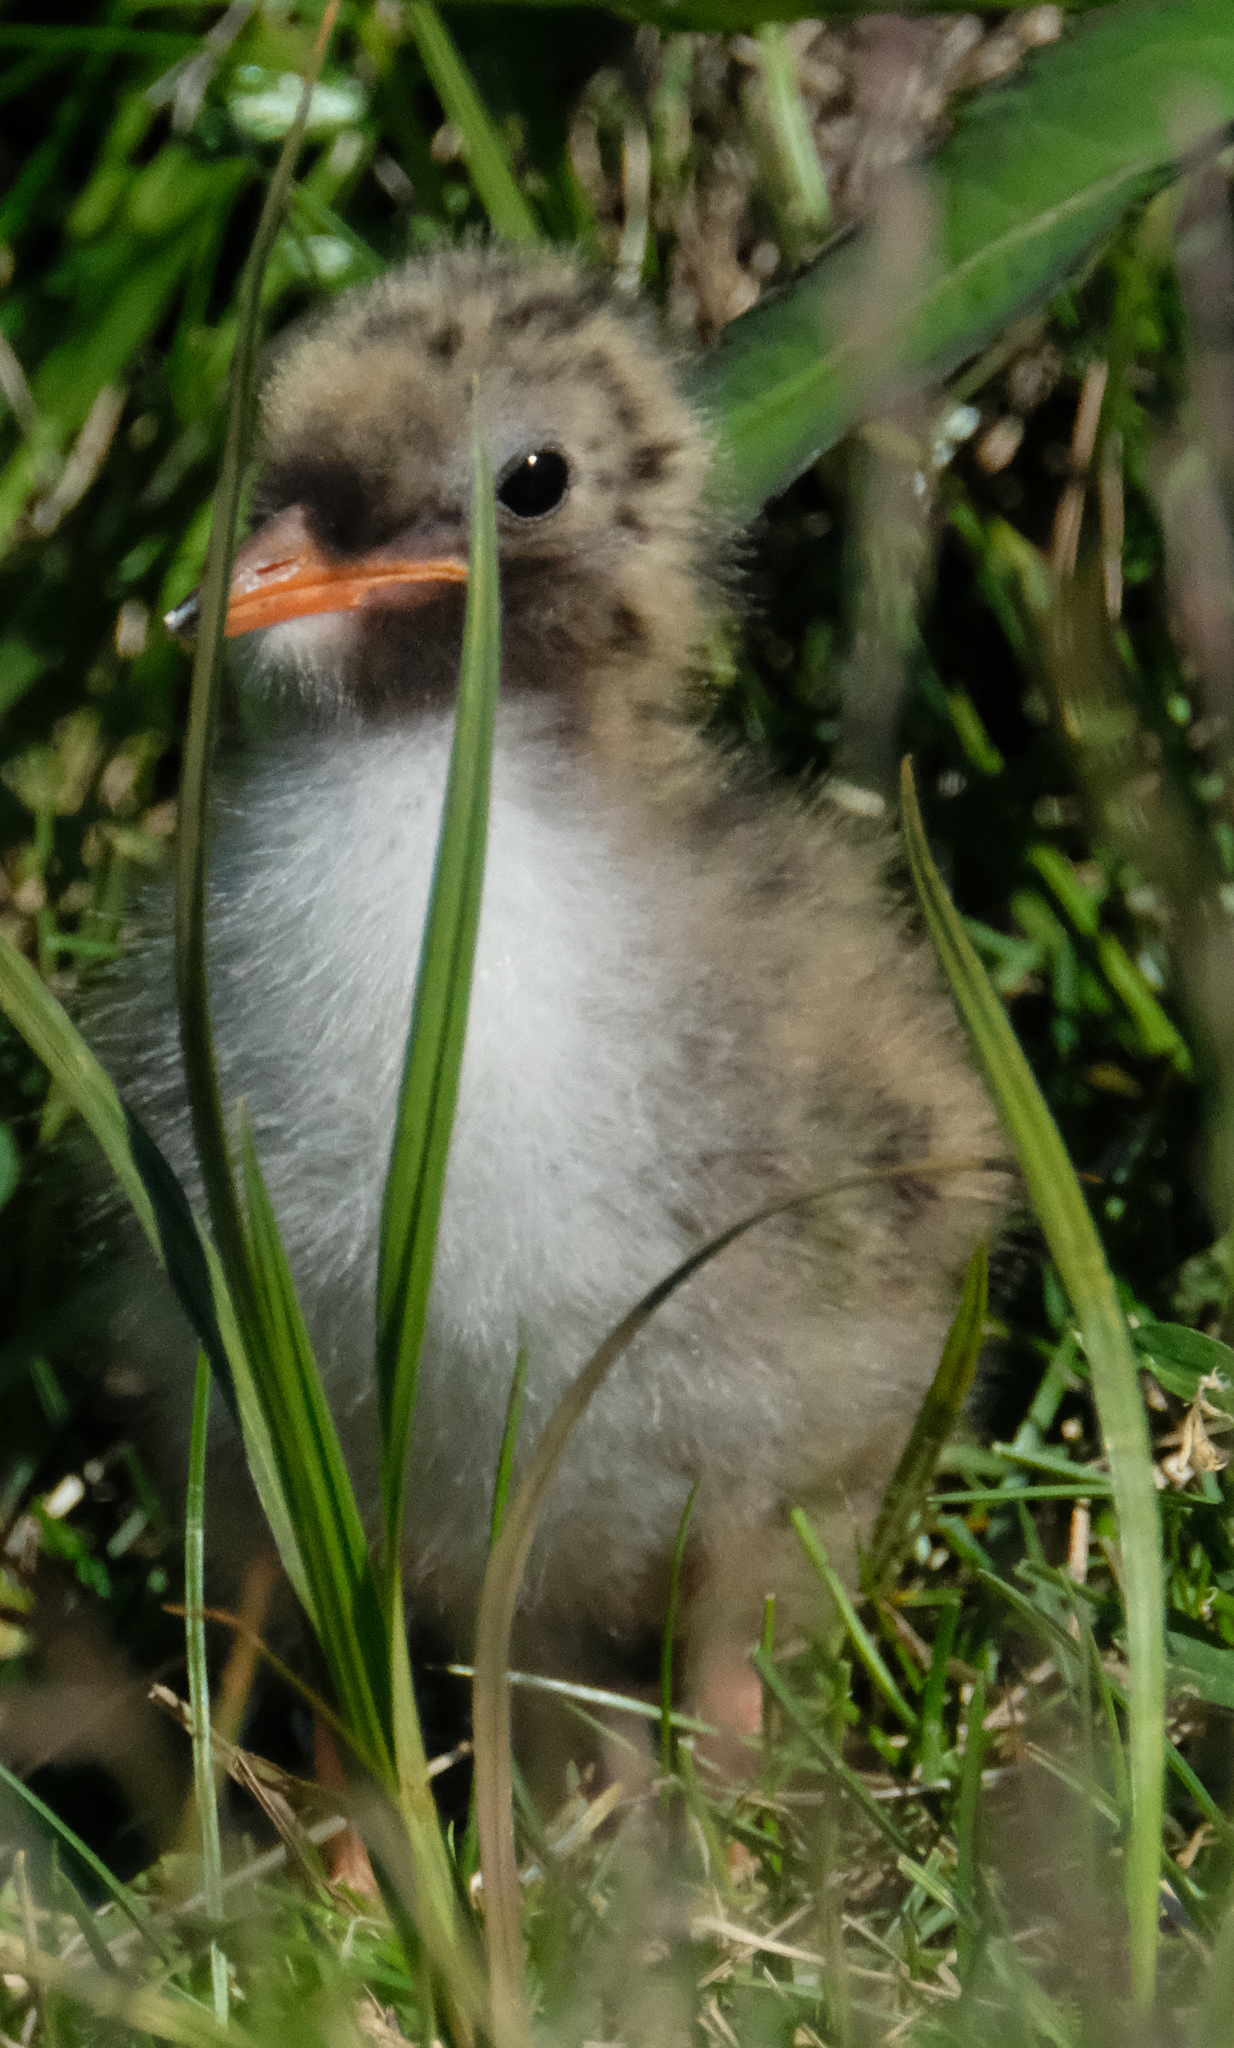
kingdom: Animalia
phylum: Chordata
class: Aves
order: Charadriiformes
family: Laridae
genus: Sterna
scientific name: Sterna paradisaea
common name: Arctic tern
